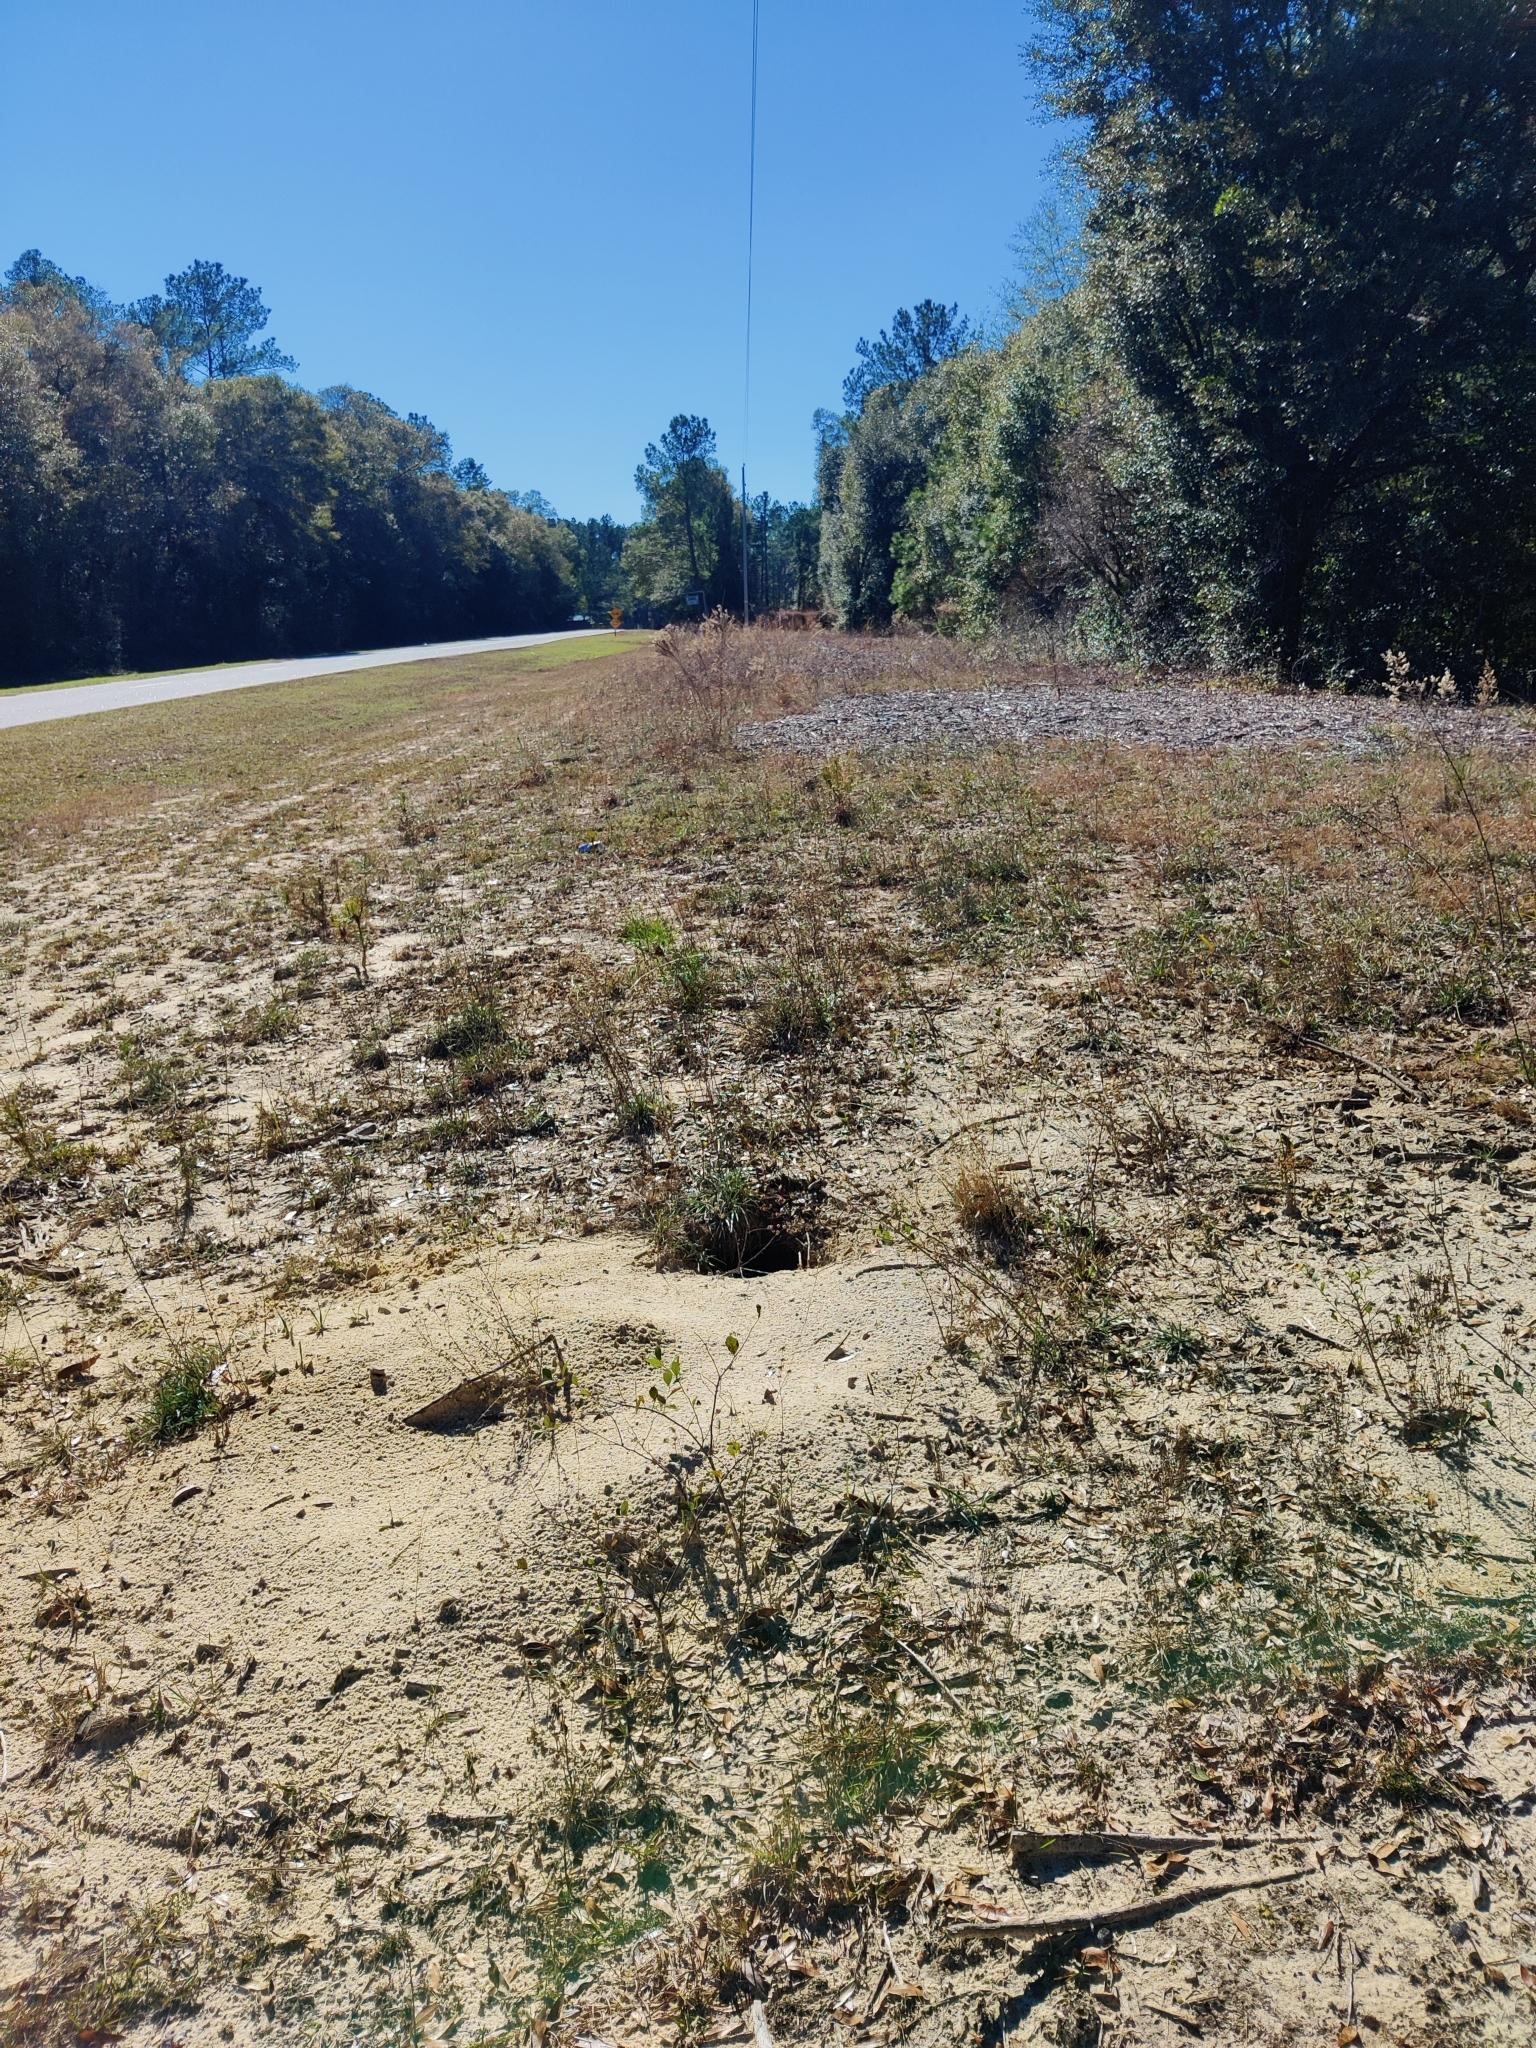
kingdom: Animalia
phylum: Chordata
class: Testudines
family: Testudinidae
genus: Gopherus
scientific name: Gopherus polyphemus
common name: Florida gopher tortoise
